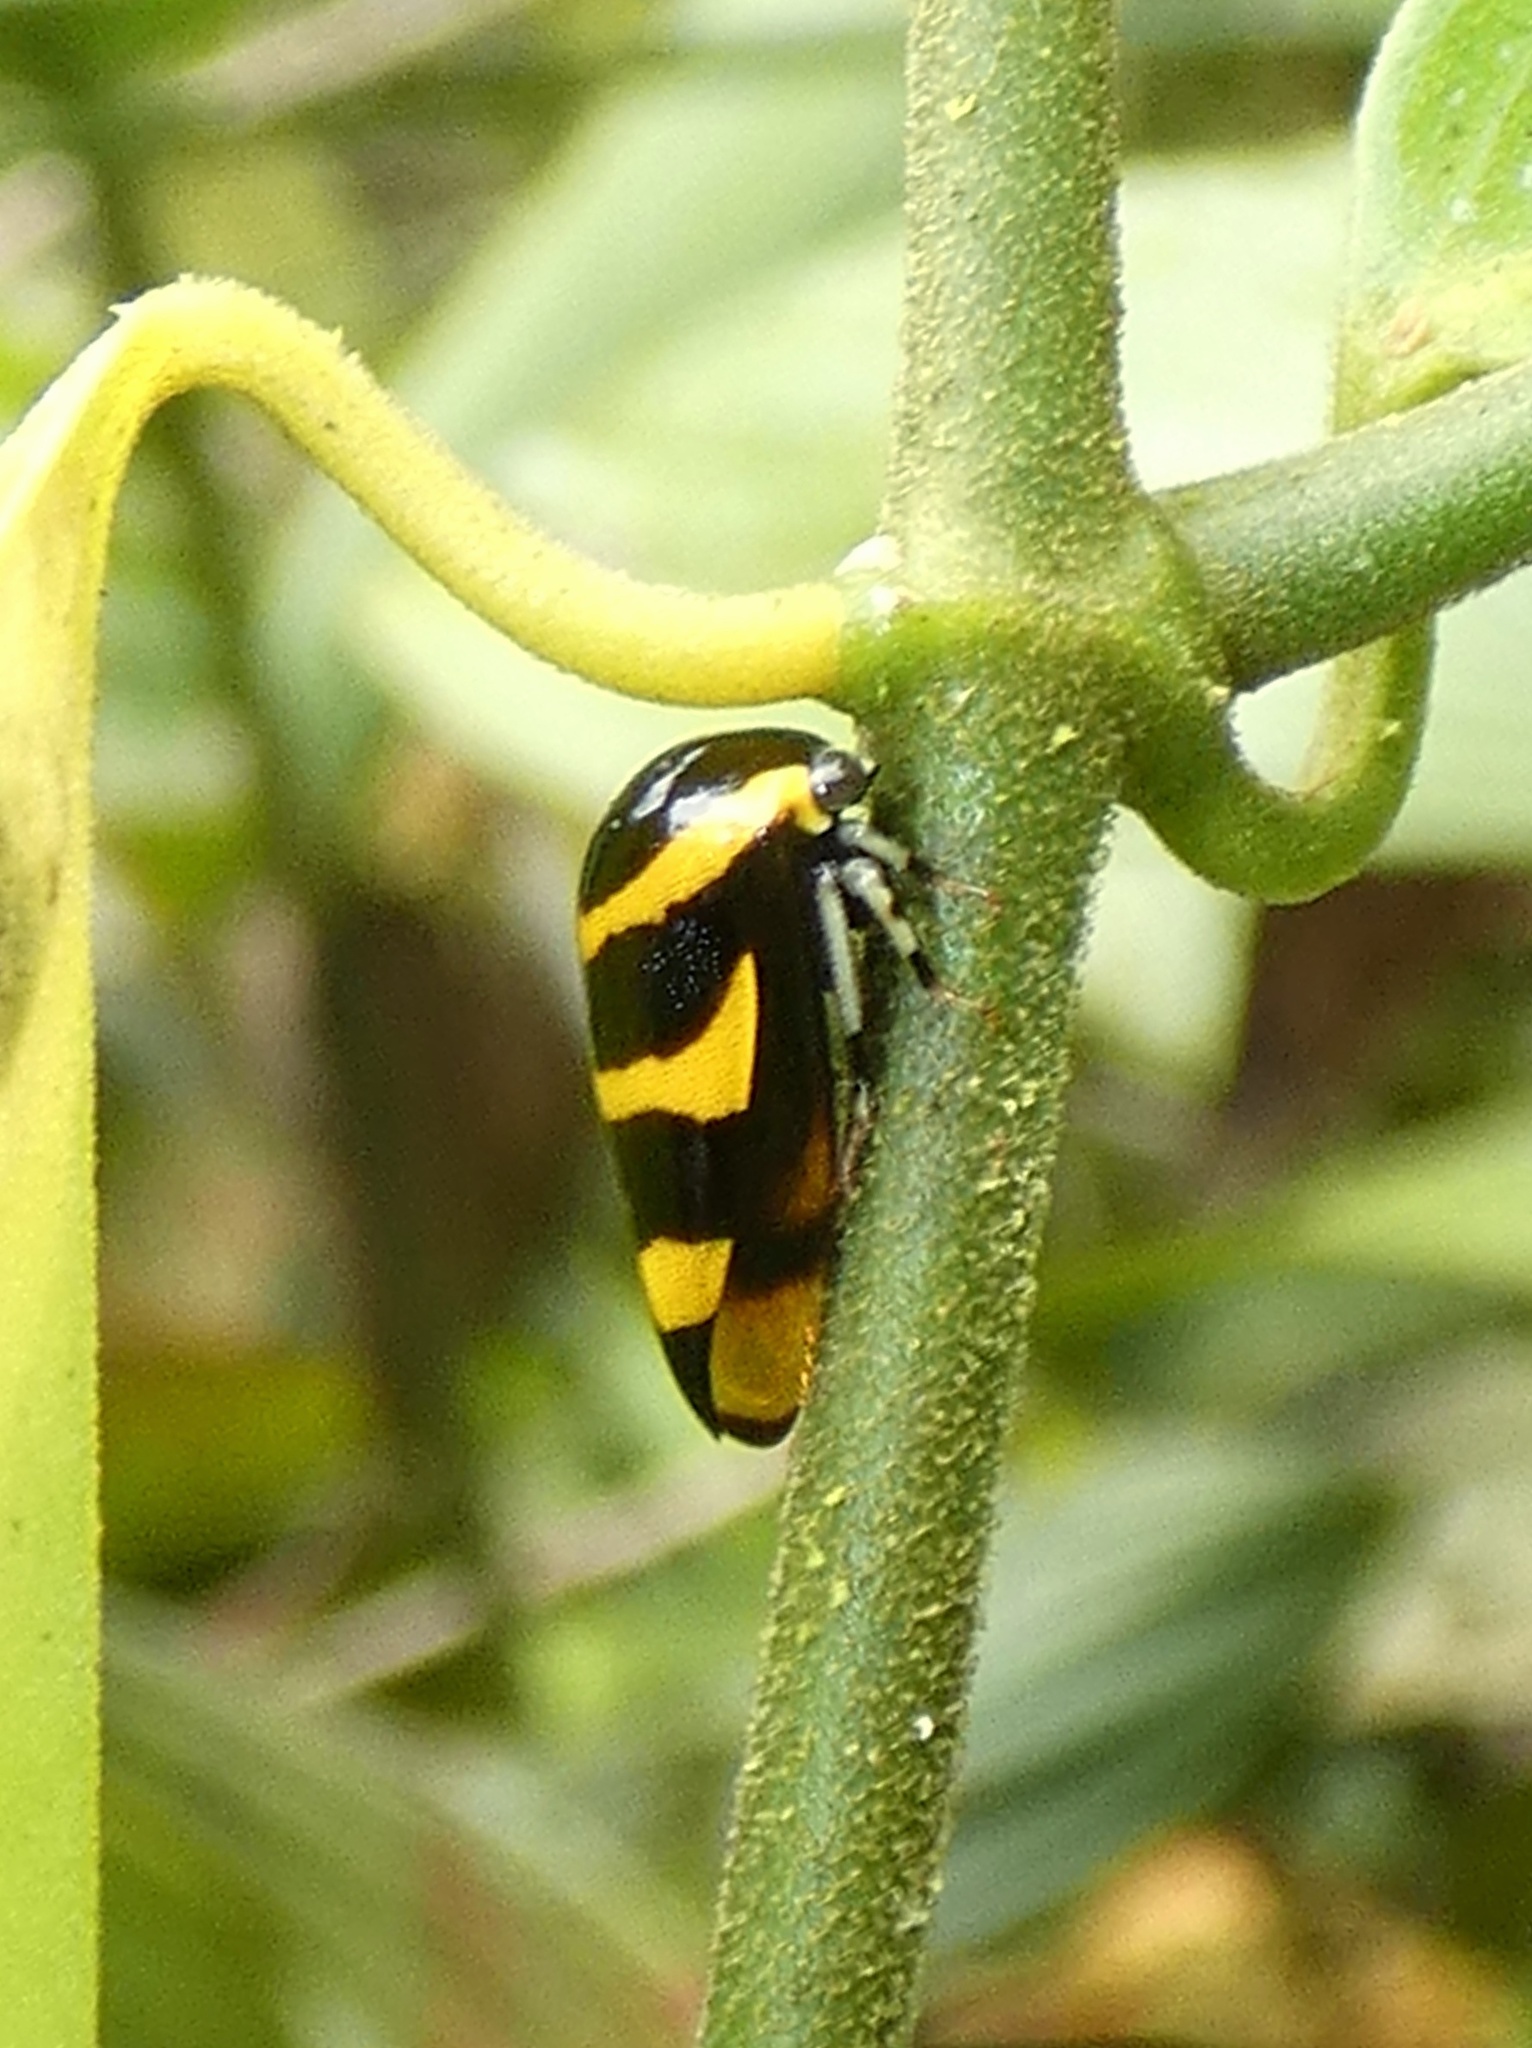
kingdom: Animalia
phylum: Arthropoda
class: Insecta
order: Hemiptera
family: Membracidae
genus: Darnis
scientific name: Darnis partita
